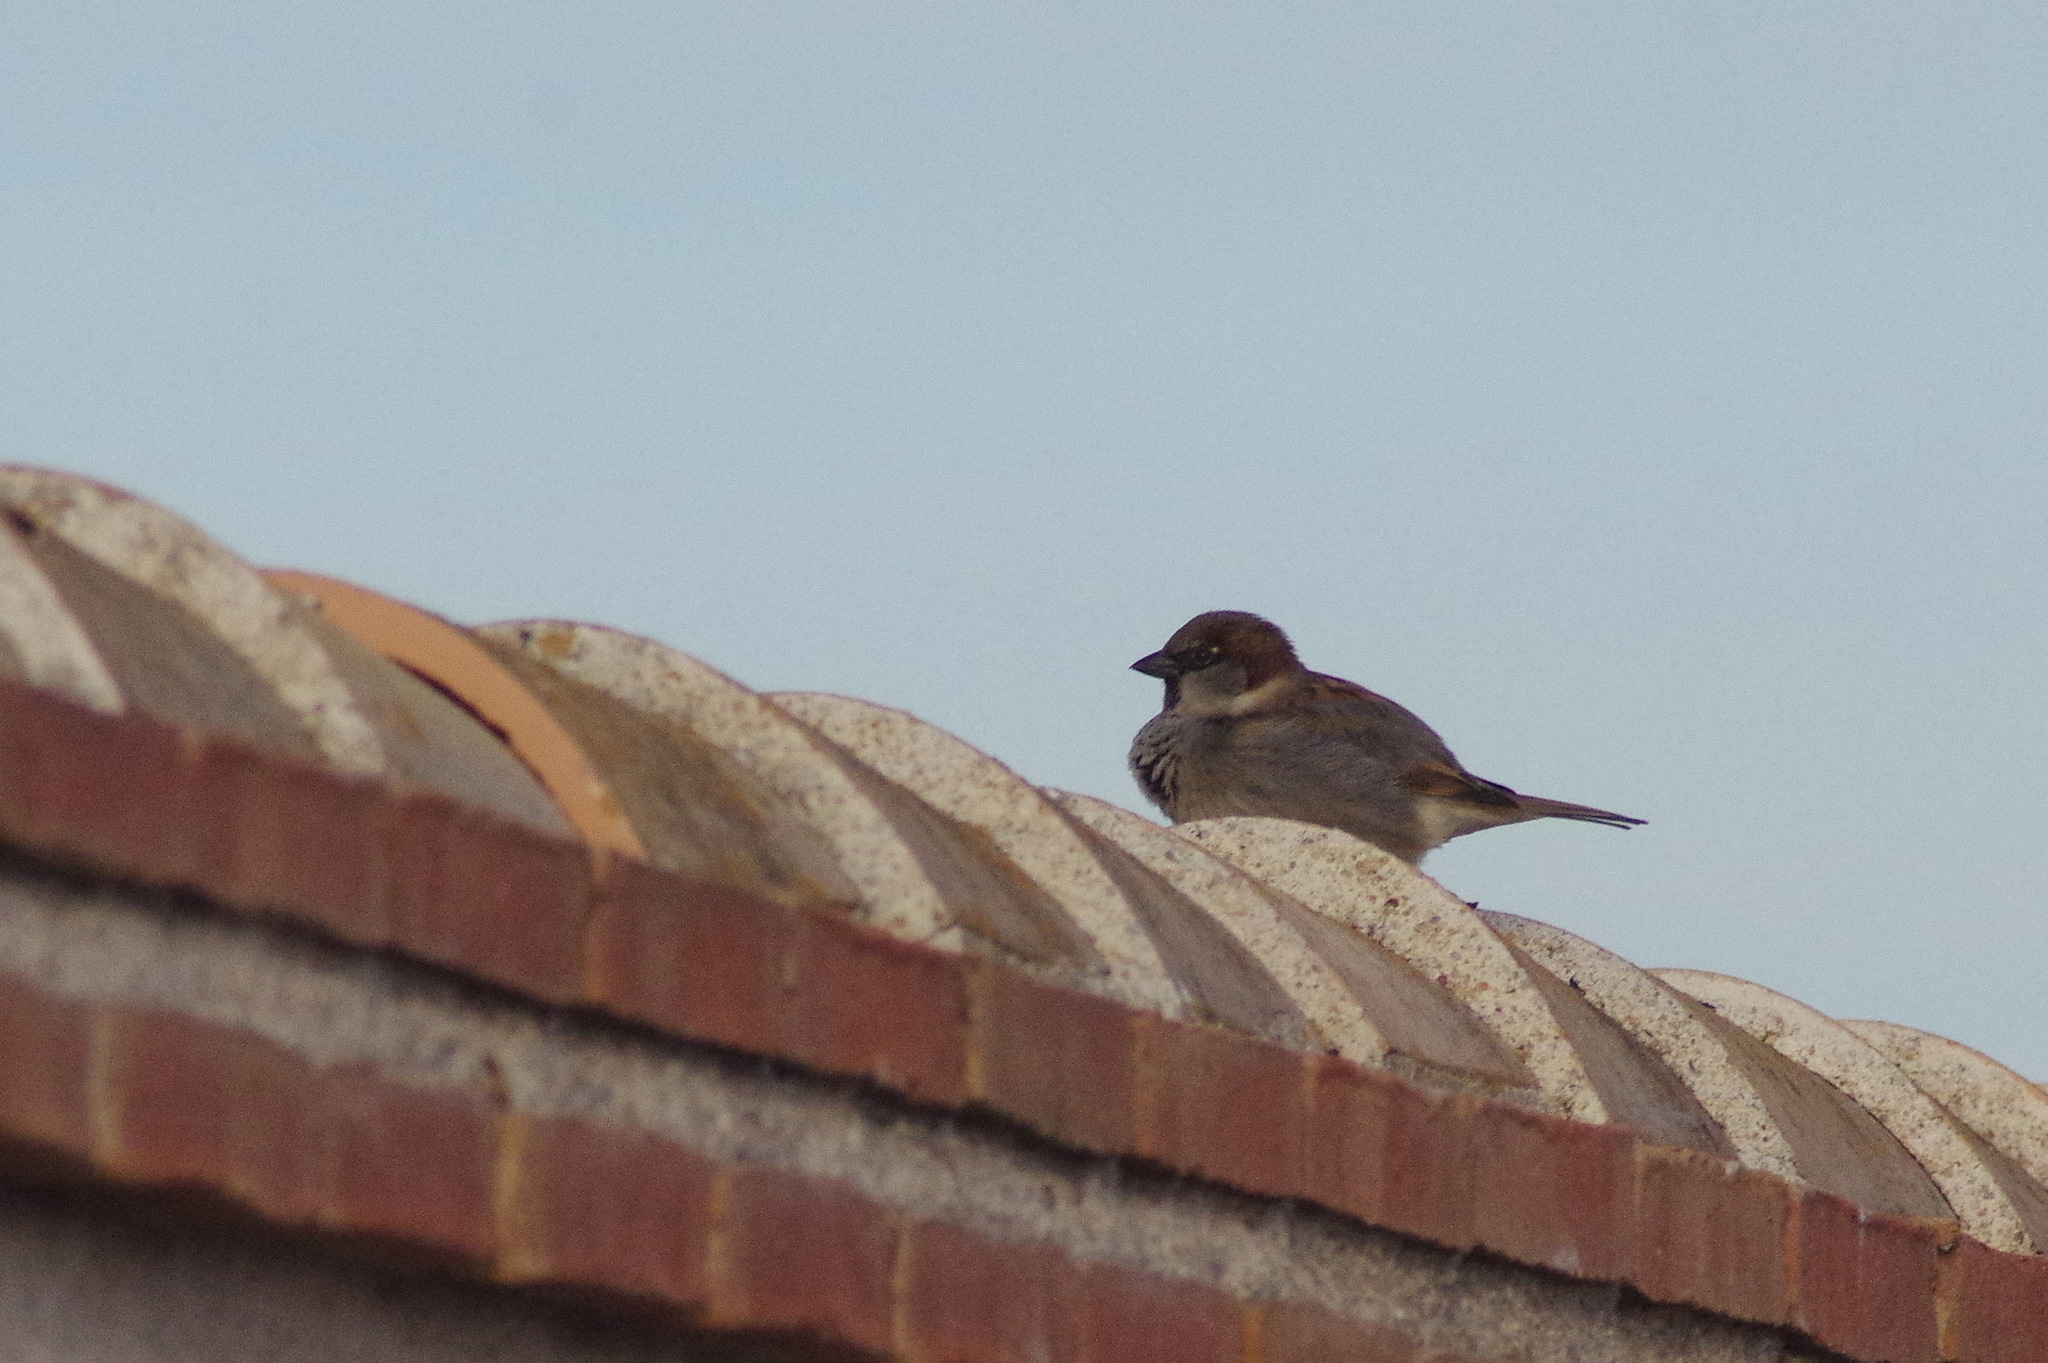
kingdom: Animalia
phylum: Chordata
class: Aves
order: Passeriformes
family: Passeridae
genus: Passer
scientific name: Passer domesticus
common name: House sparrow
